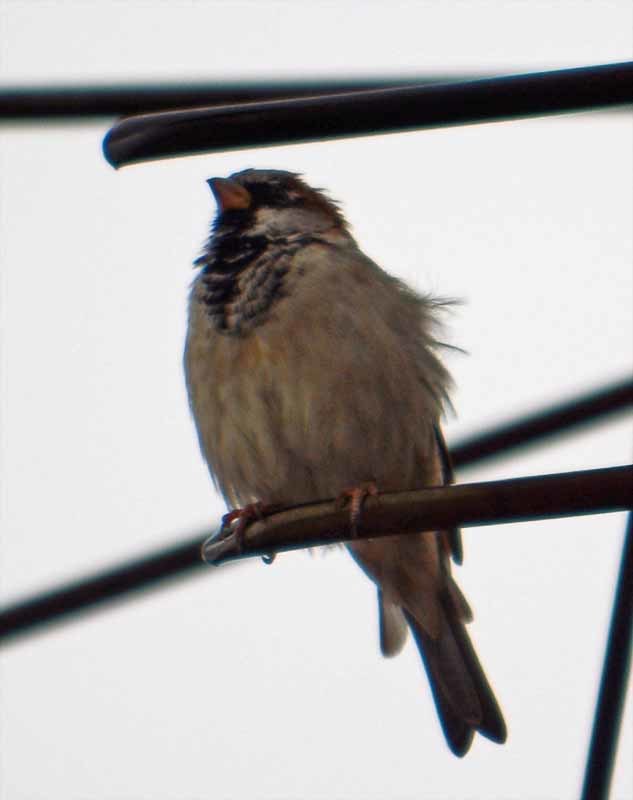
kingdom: Animalia
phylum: Chordata
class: Aves
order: Passeriformes
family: Passeridae
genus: Passer
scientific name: Passer domesticus
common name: House sparrow
